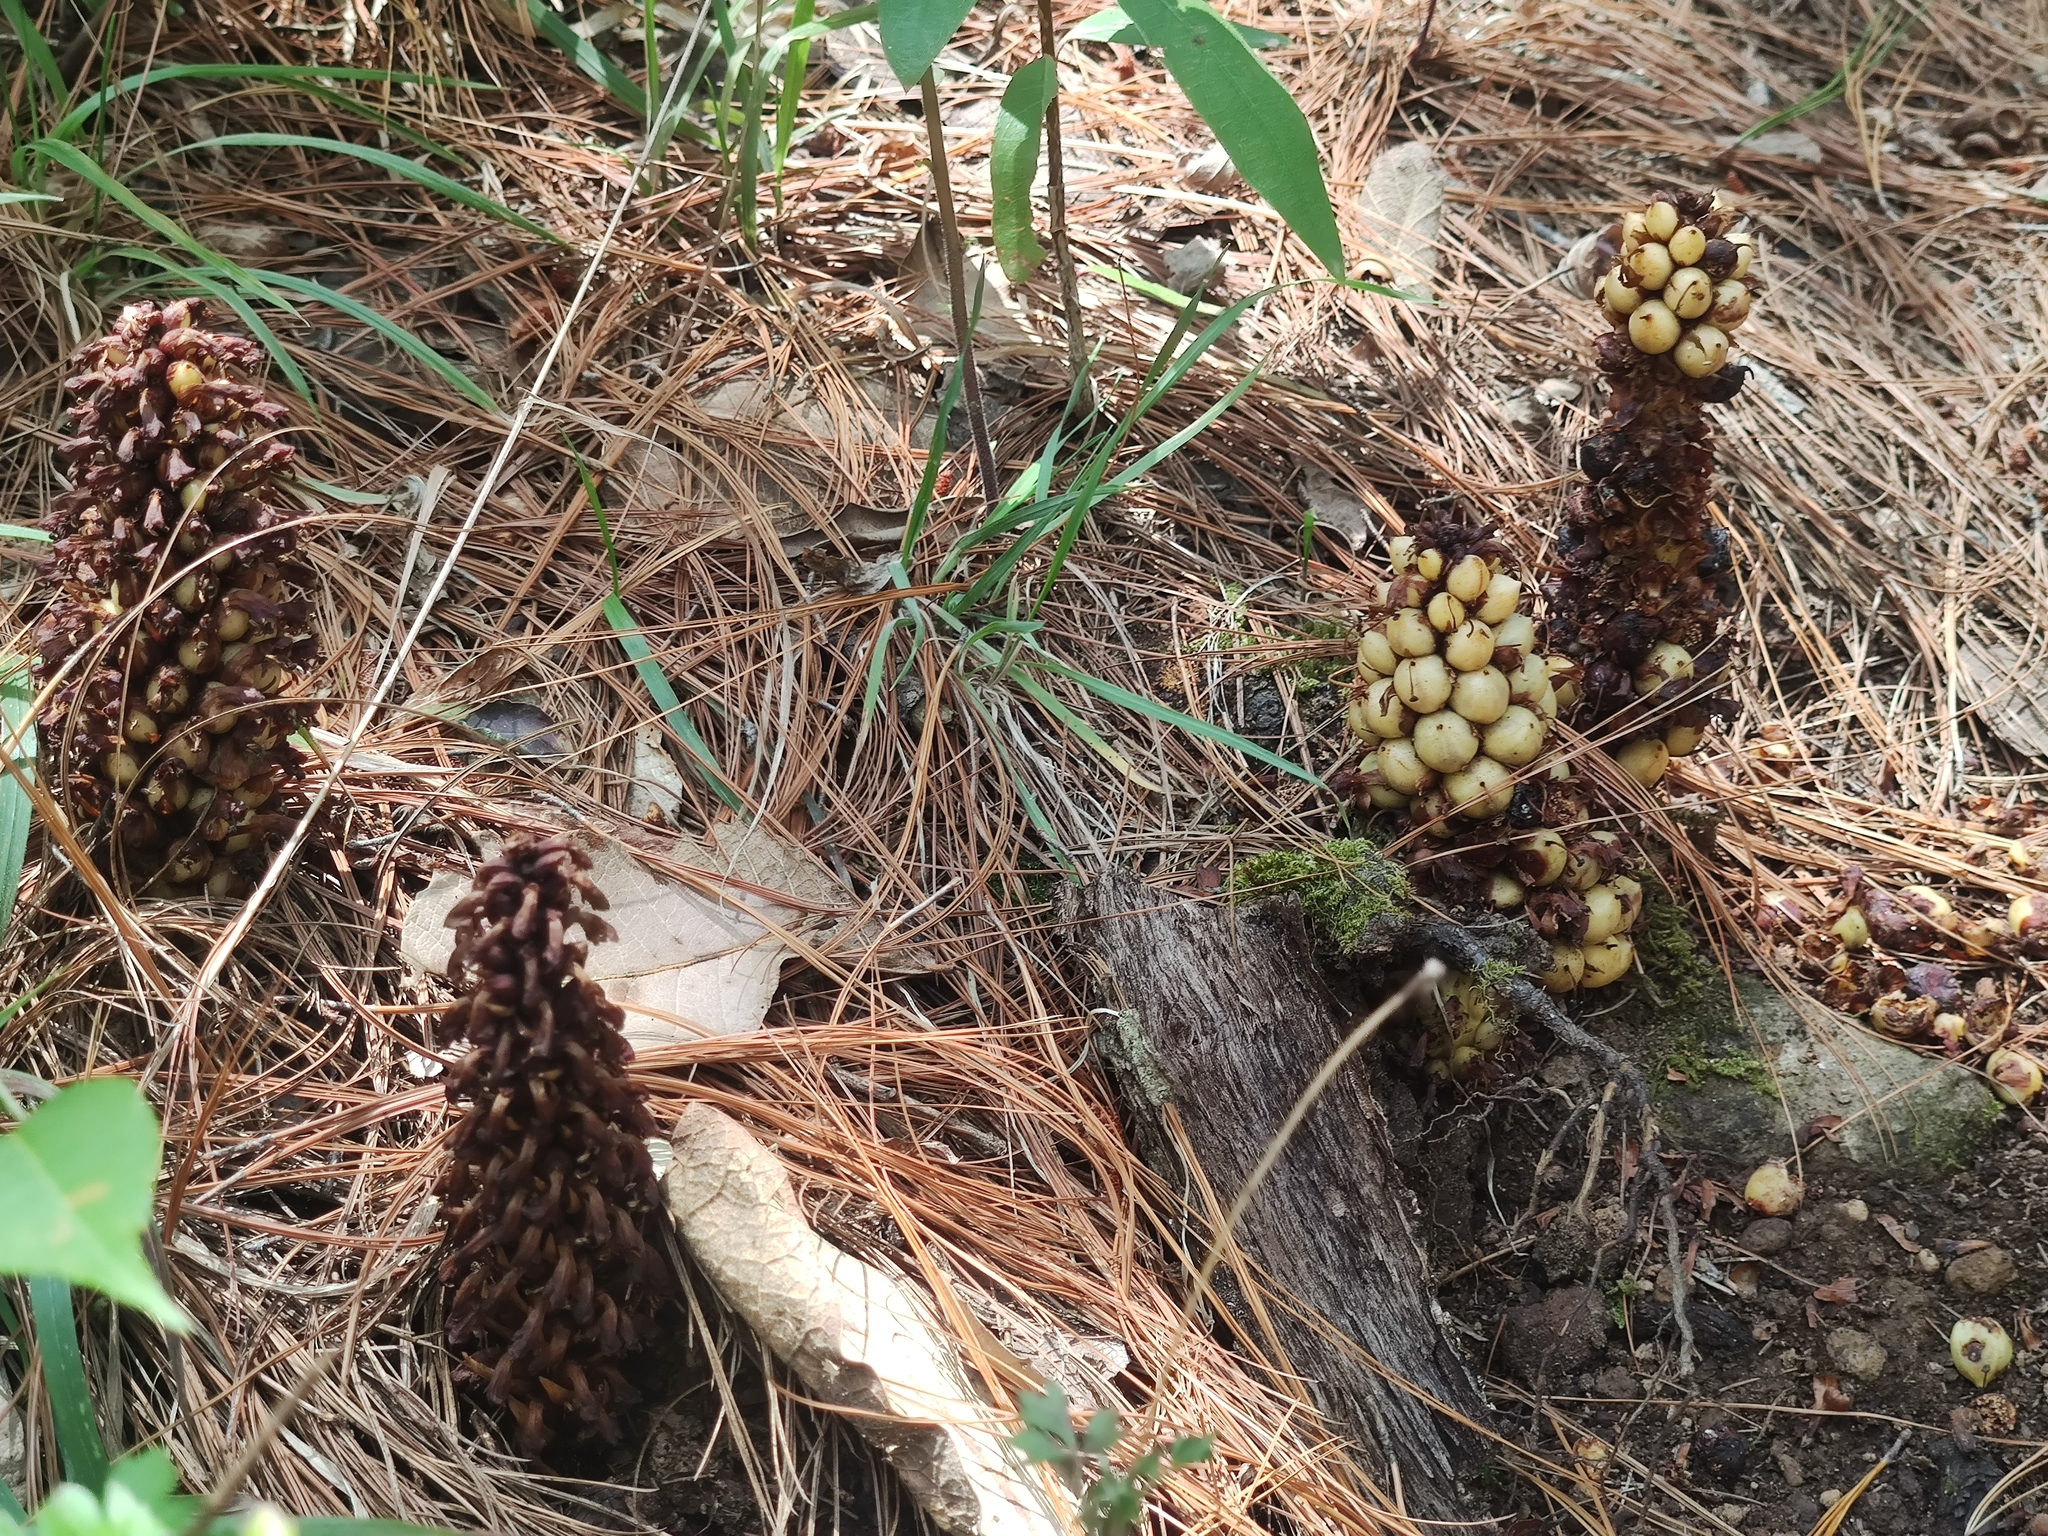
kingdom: Plantae
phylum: Tracheophyta
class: Magnoliopsida
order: Lamiales
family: Orobanchaceae
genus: Conopholis
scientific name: Conopholis alpina
